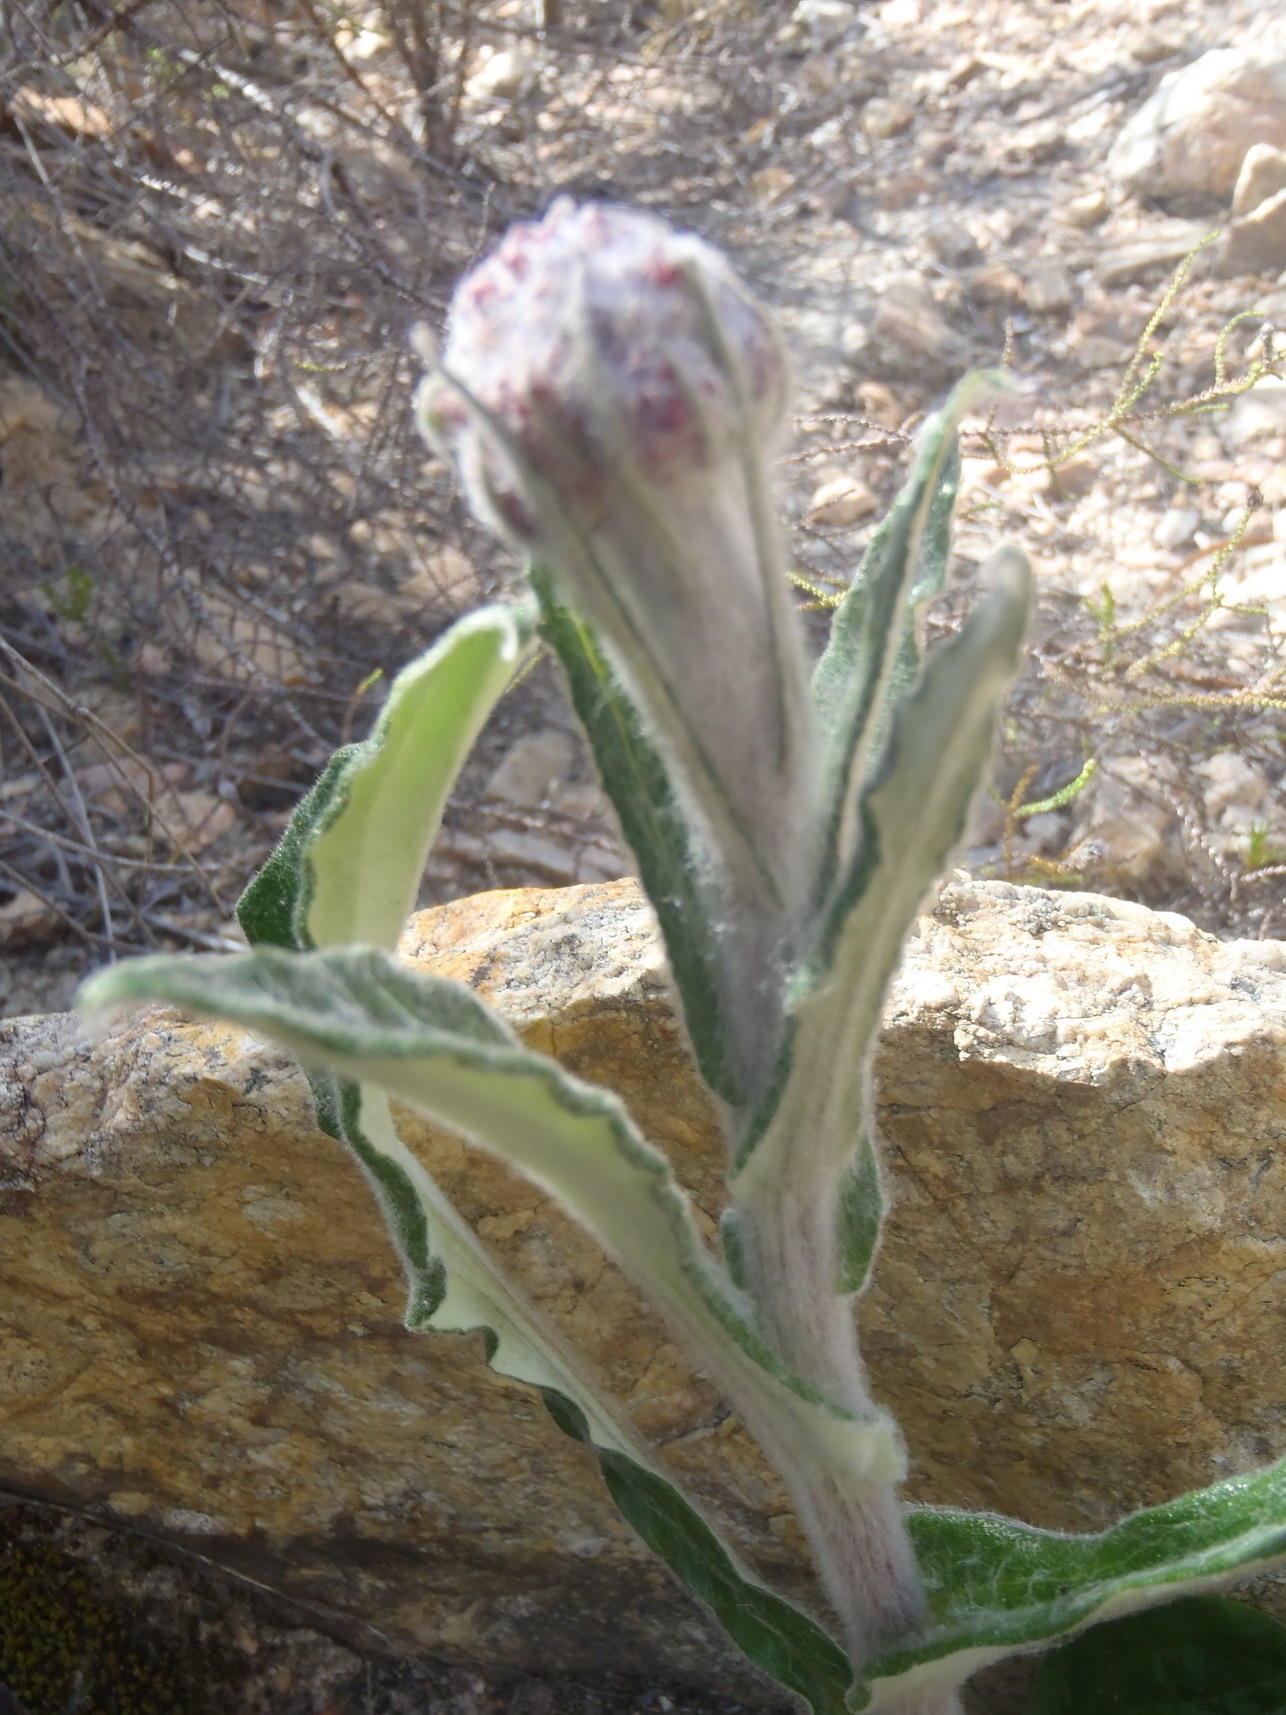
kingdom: Plantae
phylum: Tracheophyta
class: Magnoliopsida
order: Asterales
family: Asteraceae
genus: Helichrysum
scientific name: Helichrysum nudifolium
